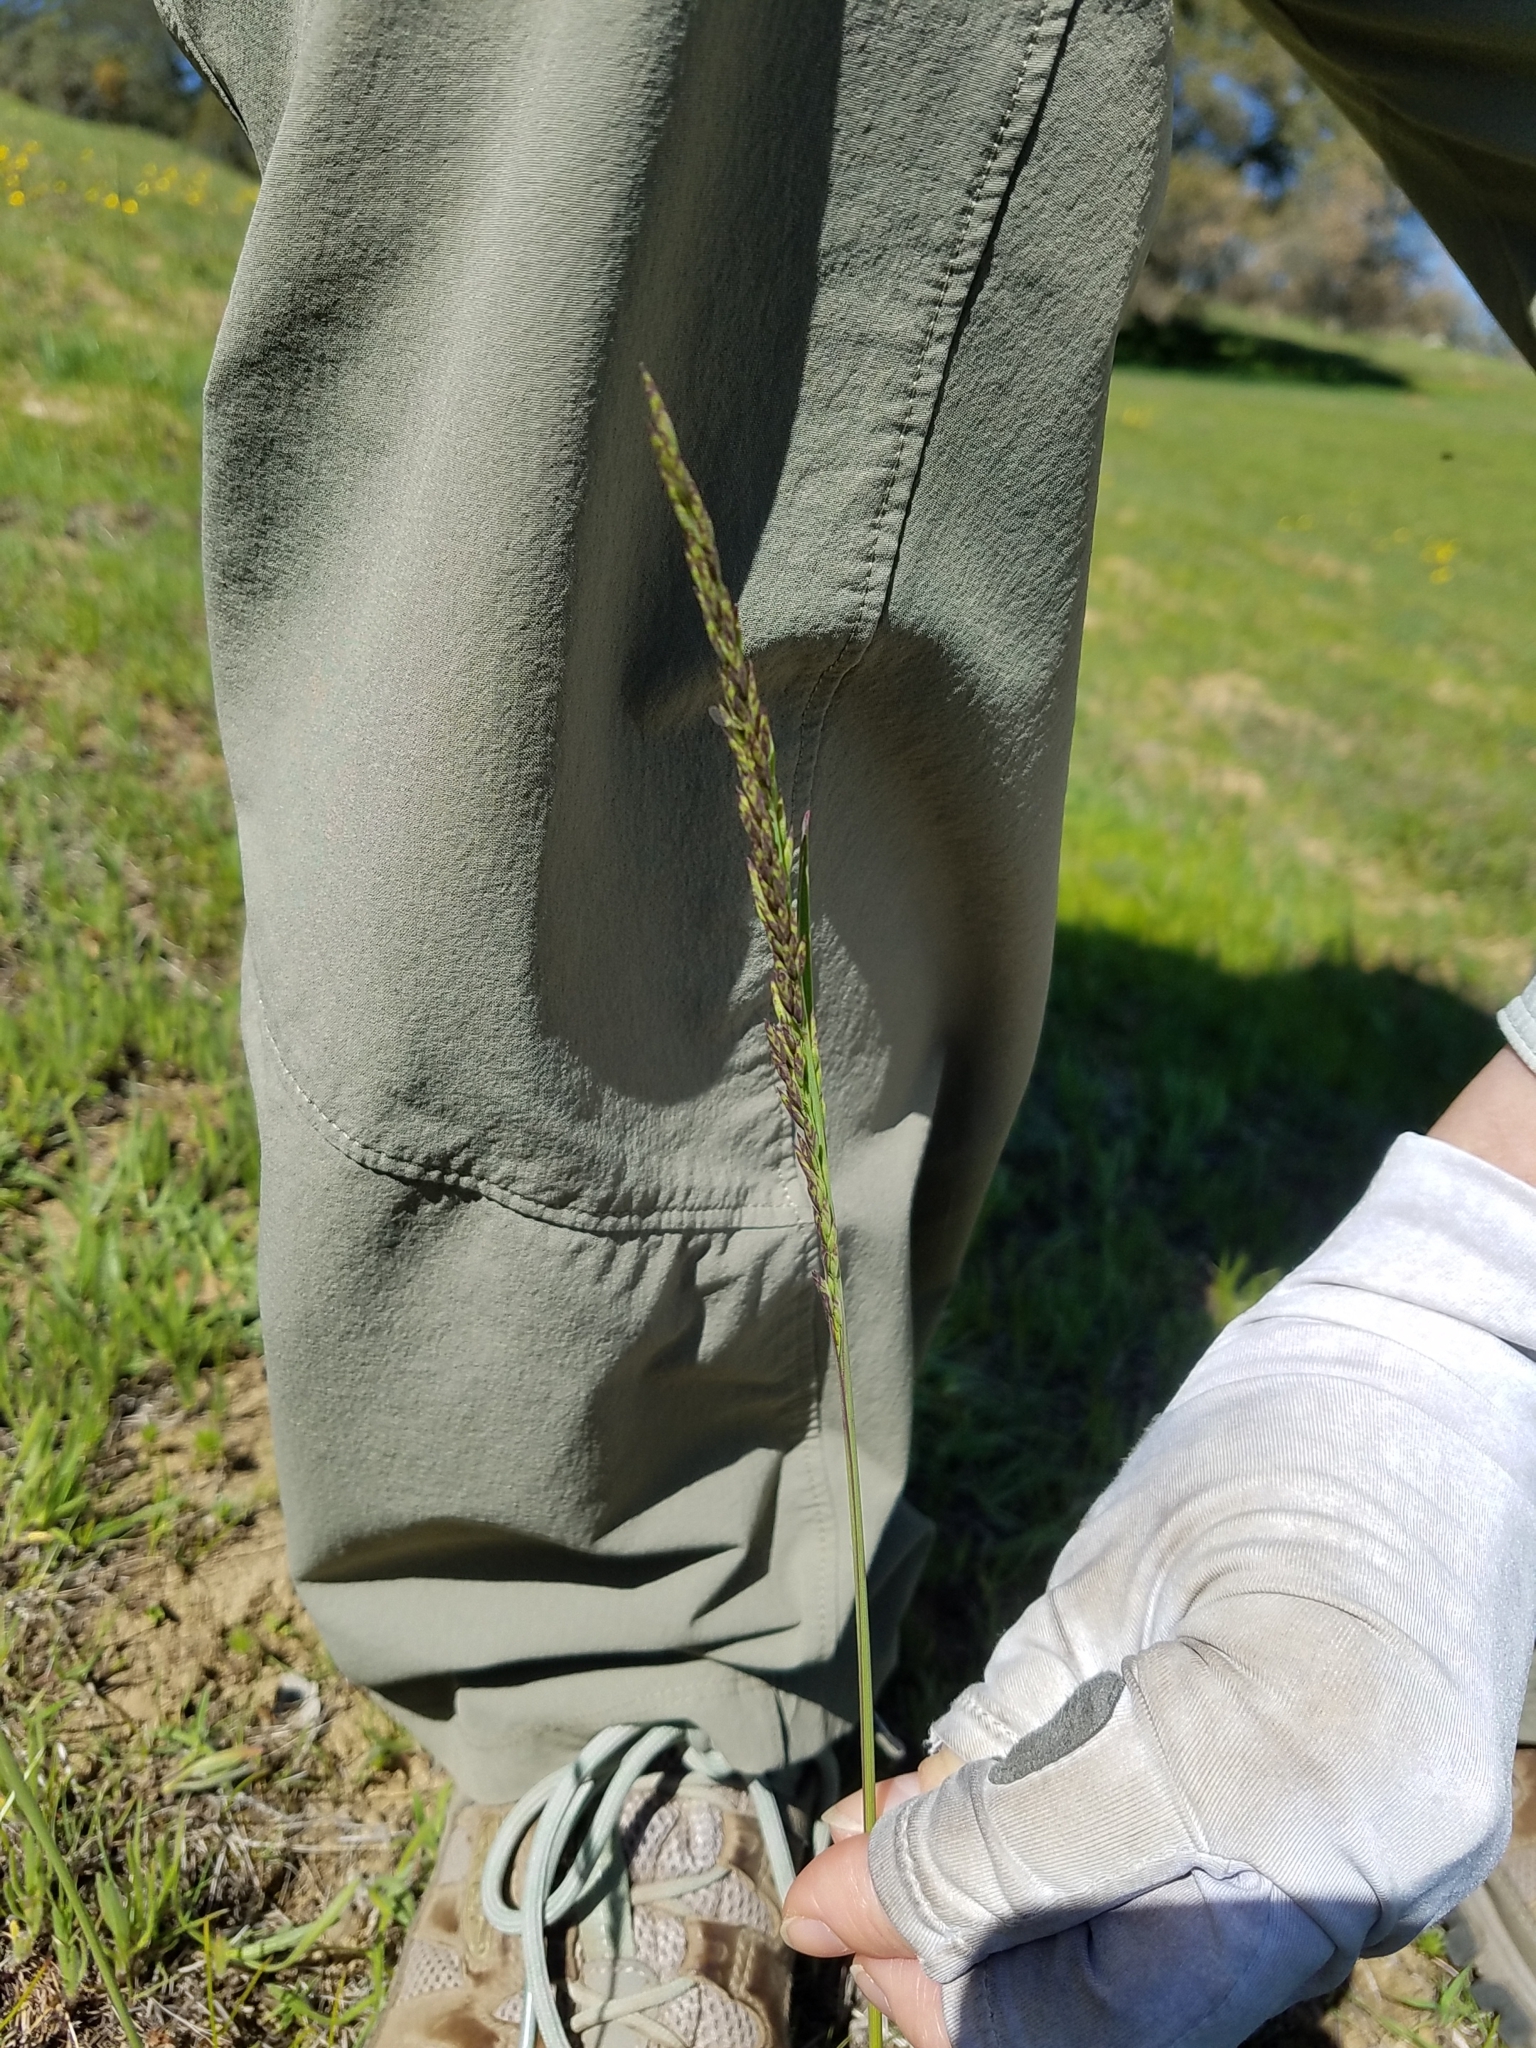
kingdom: Plantae
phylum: Tracheophyta
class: Liliopsida
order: Poales
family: Poaceae
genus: Poa
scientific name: Poa secunda
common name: Sandberg bluegrass
